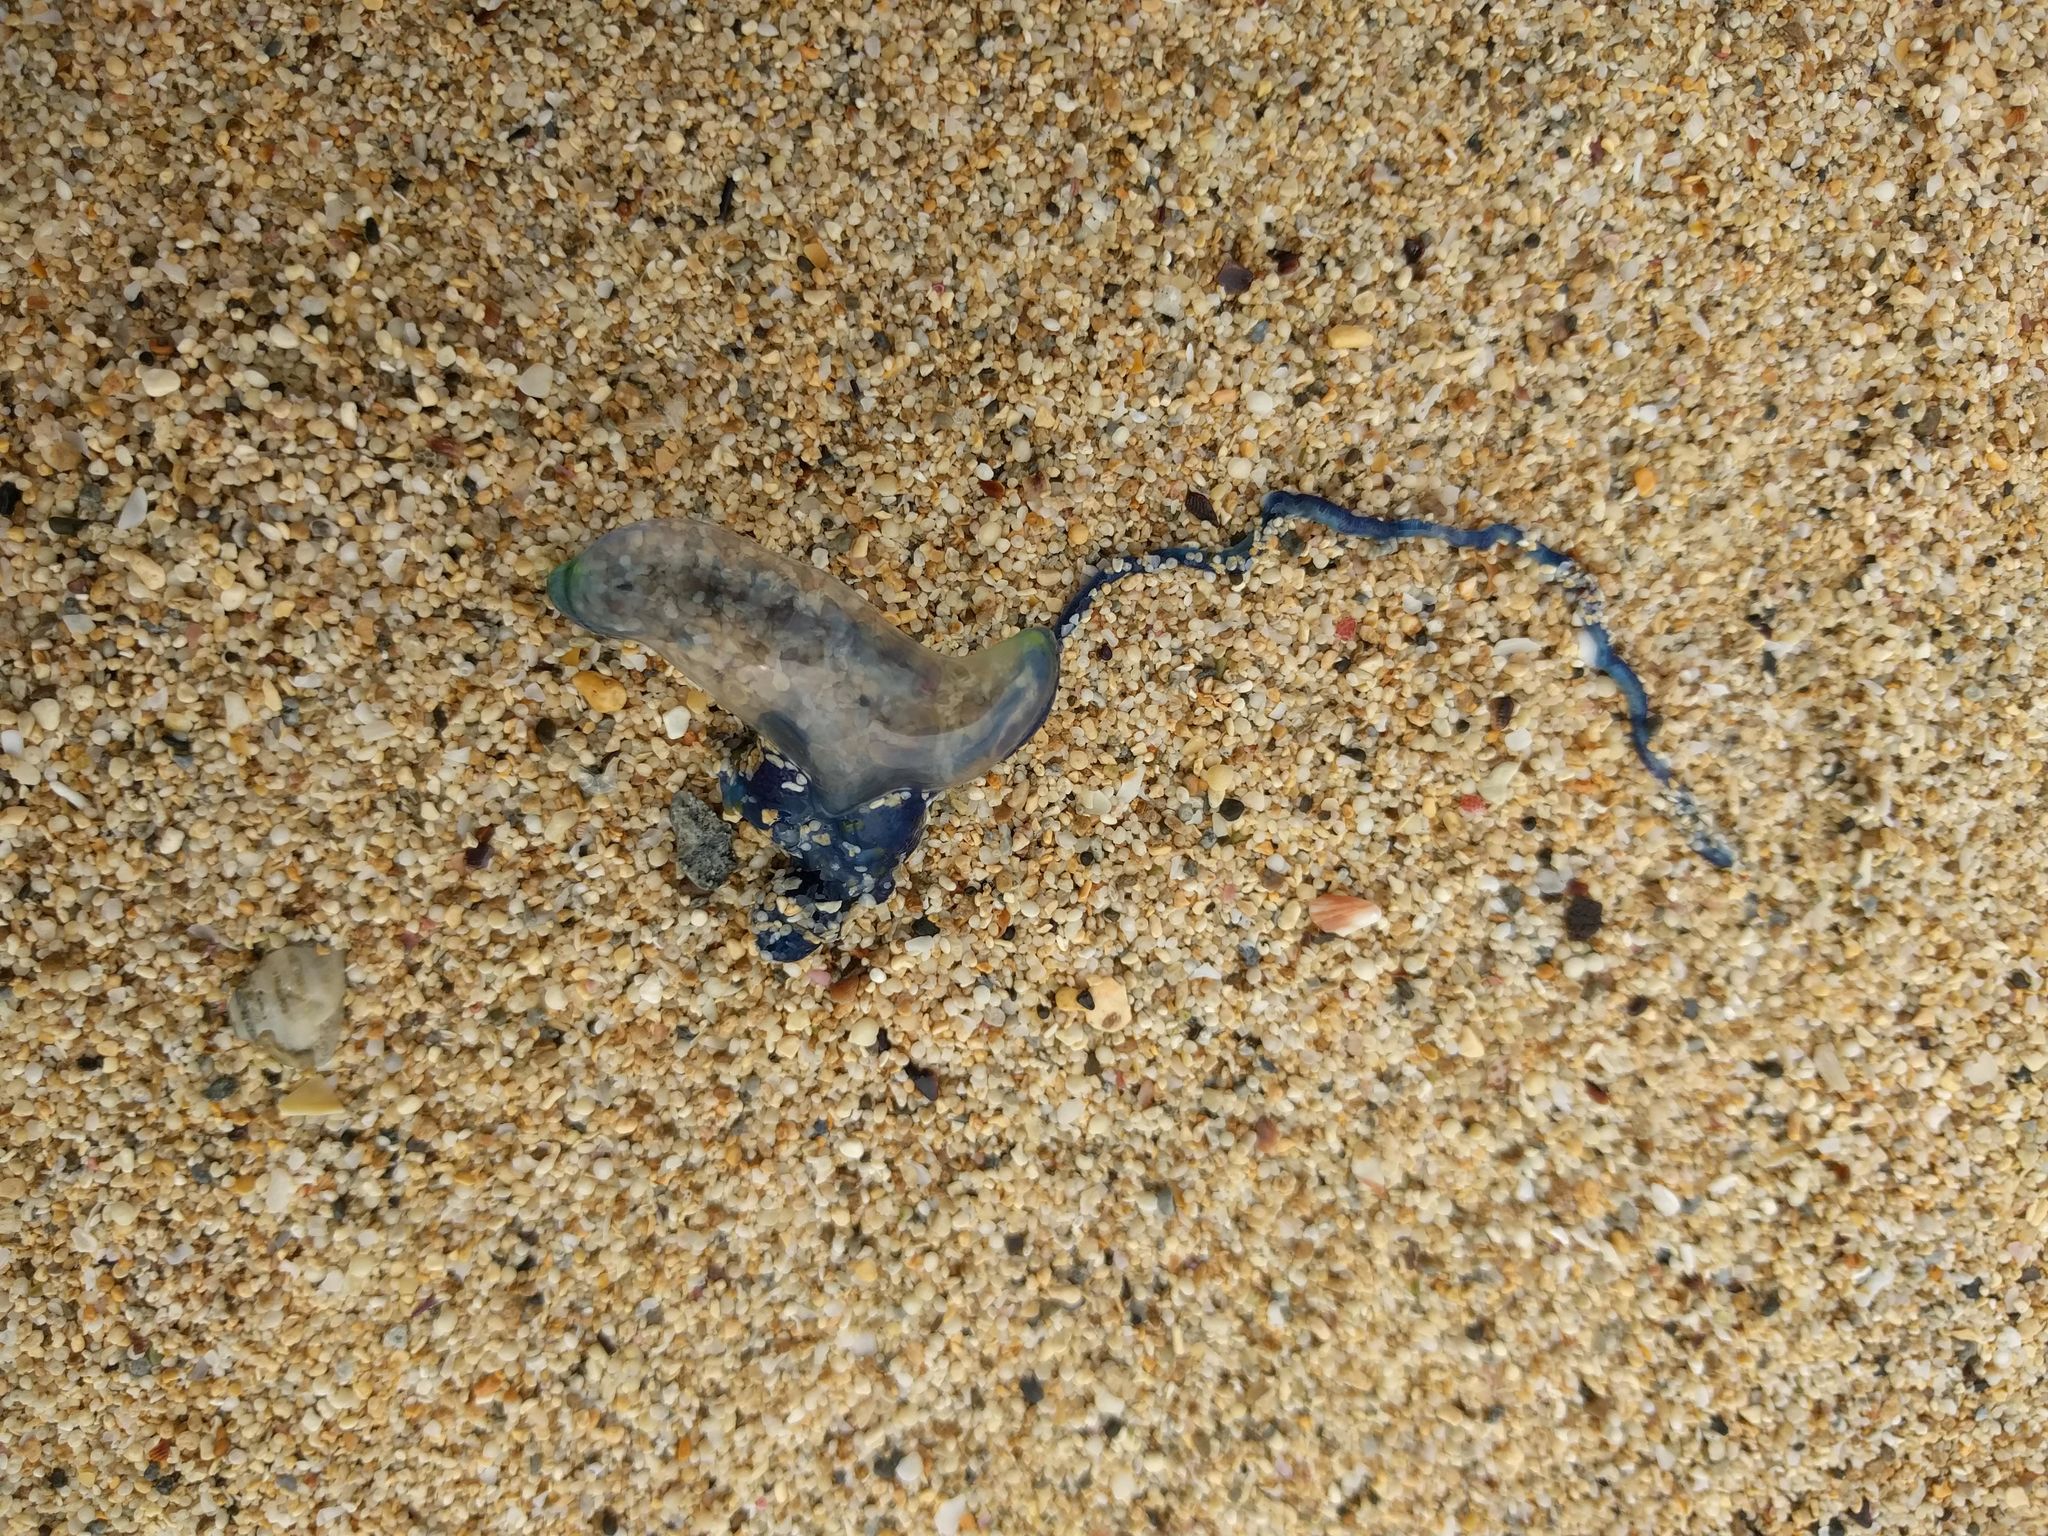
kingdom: Animalia
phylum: Cnidaria
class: Hydrozoa
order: Siphonophorae
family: Physaliidae
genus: Physalia
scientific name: Physalia physalis
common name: Portuguese man-of-war
